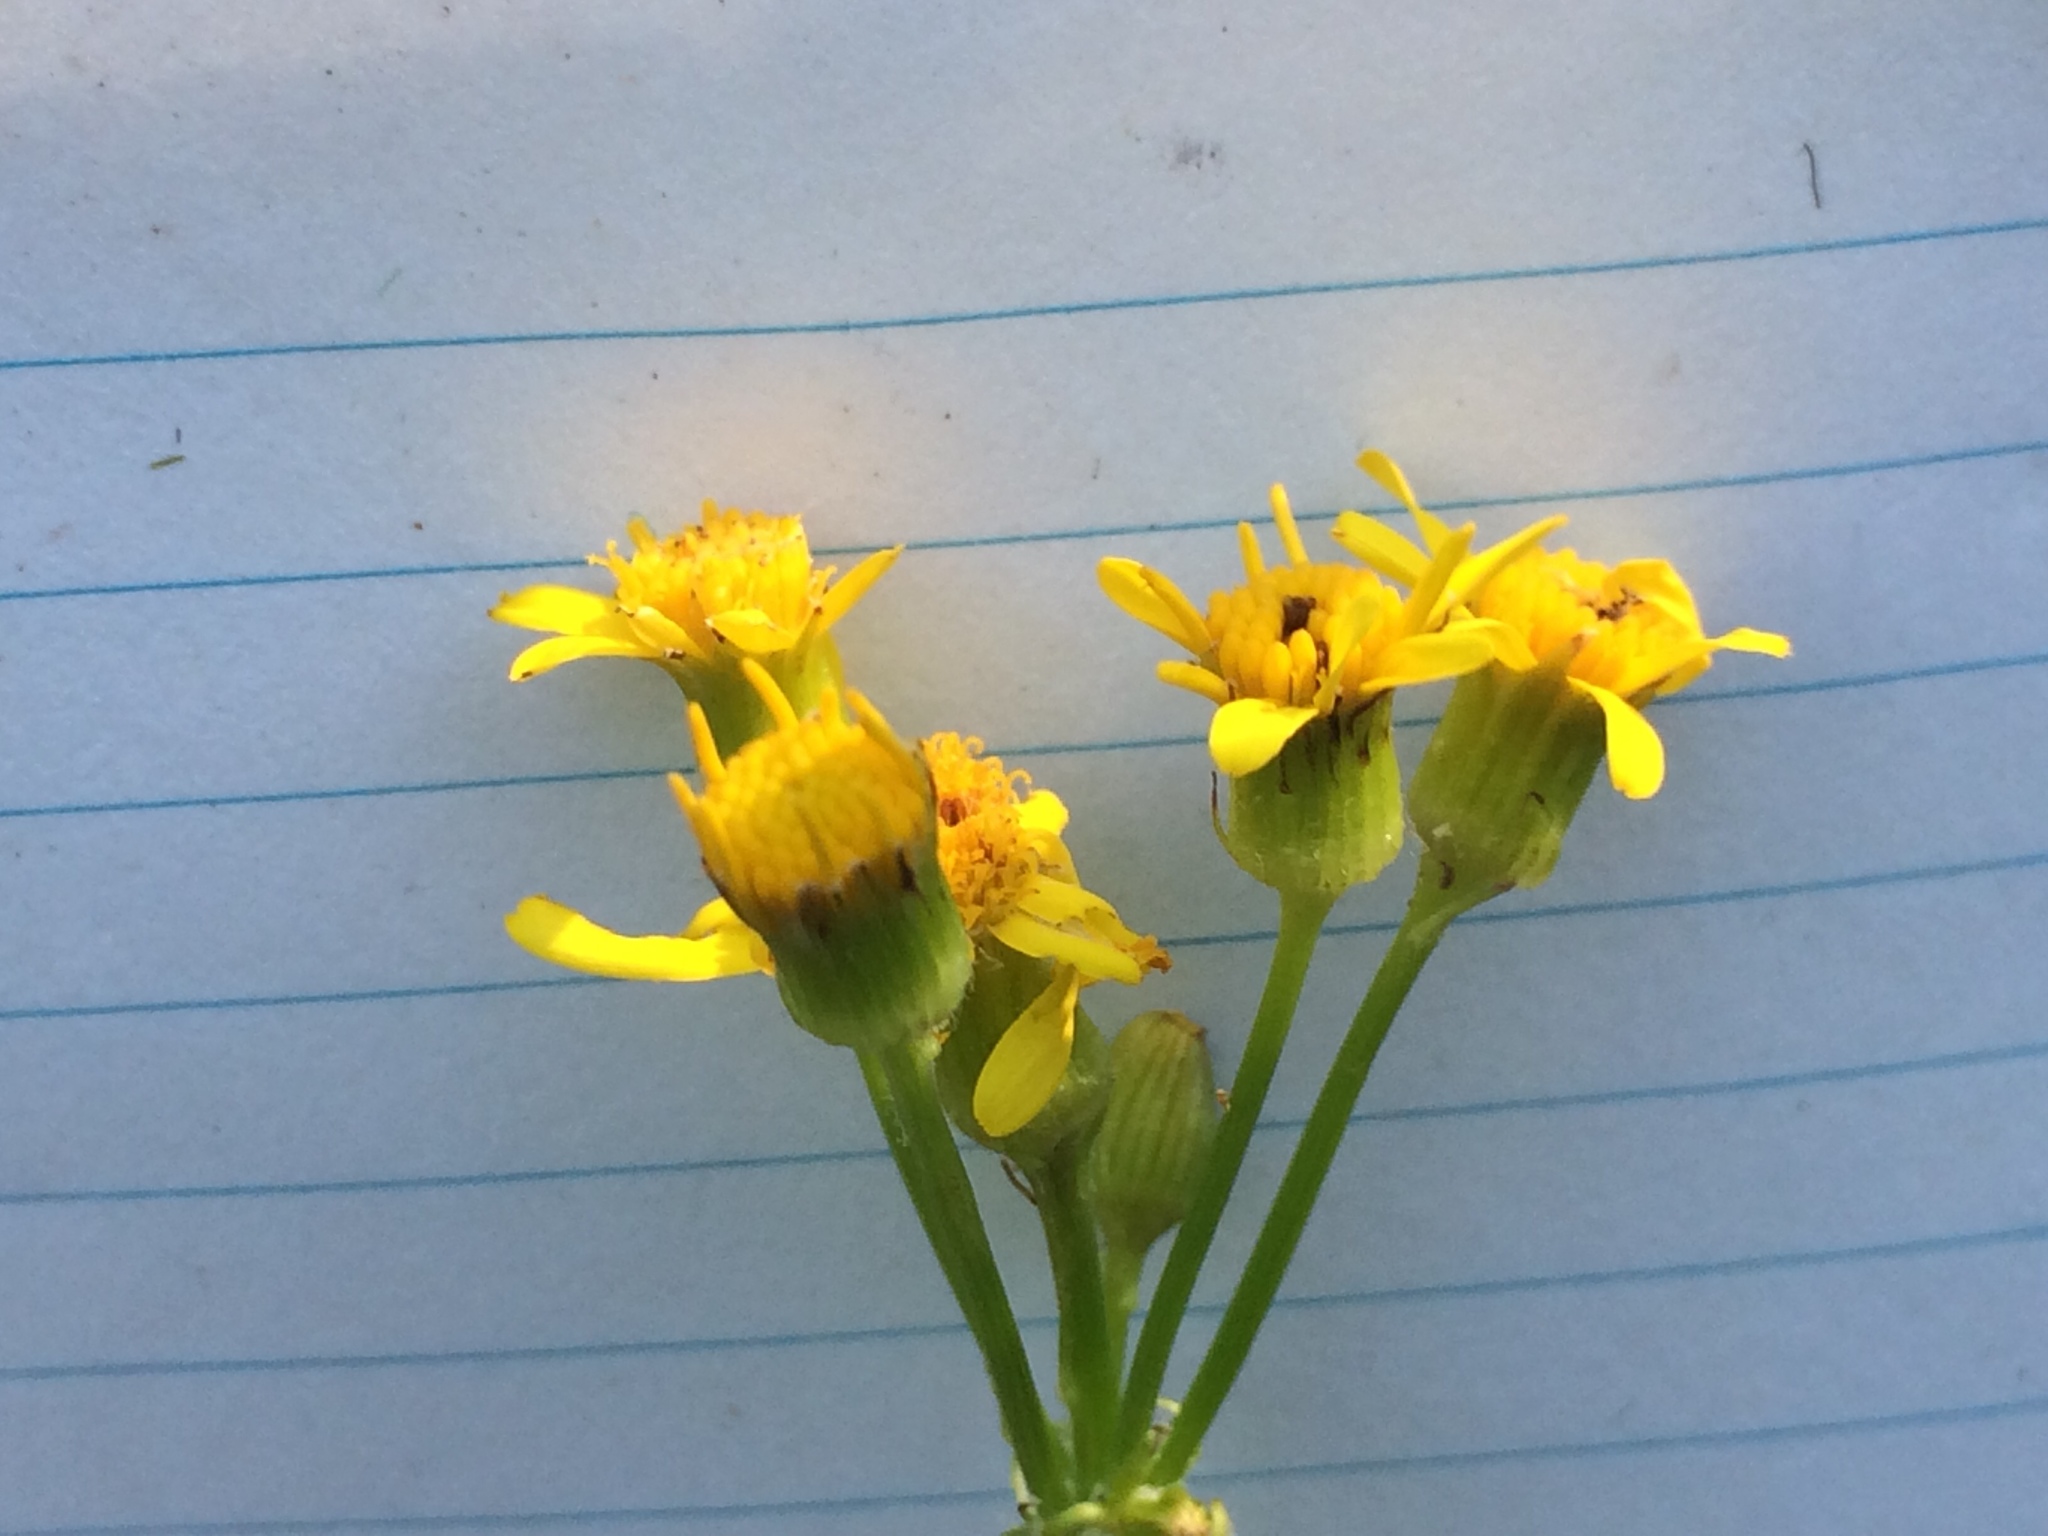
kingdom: Plantae
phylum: Tracheophyta
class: Magnoliopsida
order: Asterales
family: Asteraceae
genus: Packera
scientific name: Packera aurea
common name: Golden groundsel
